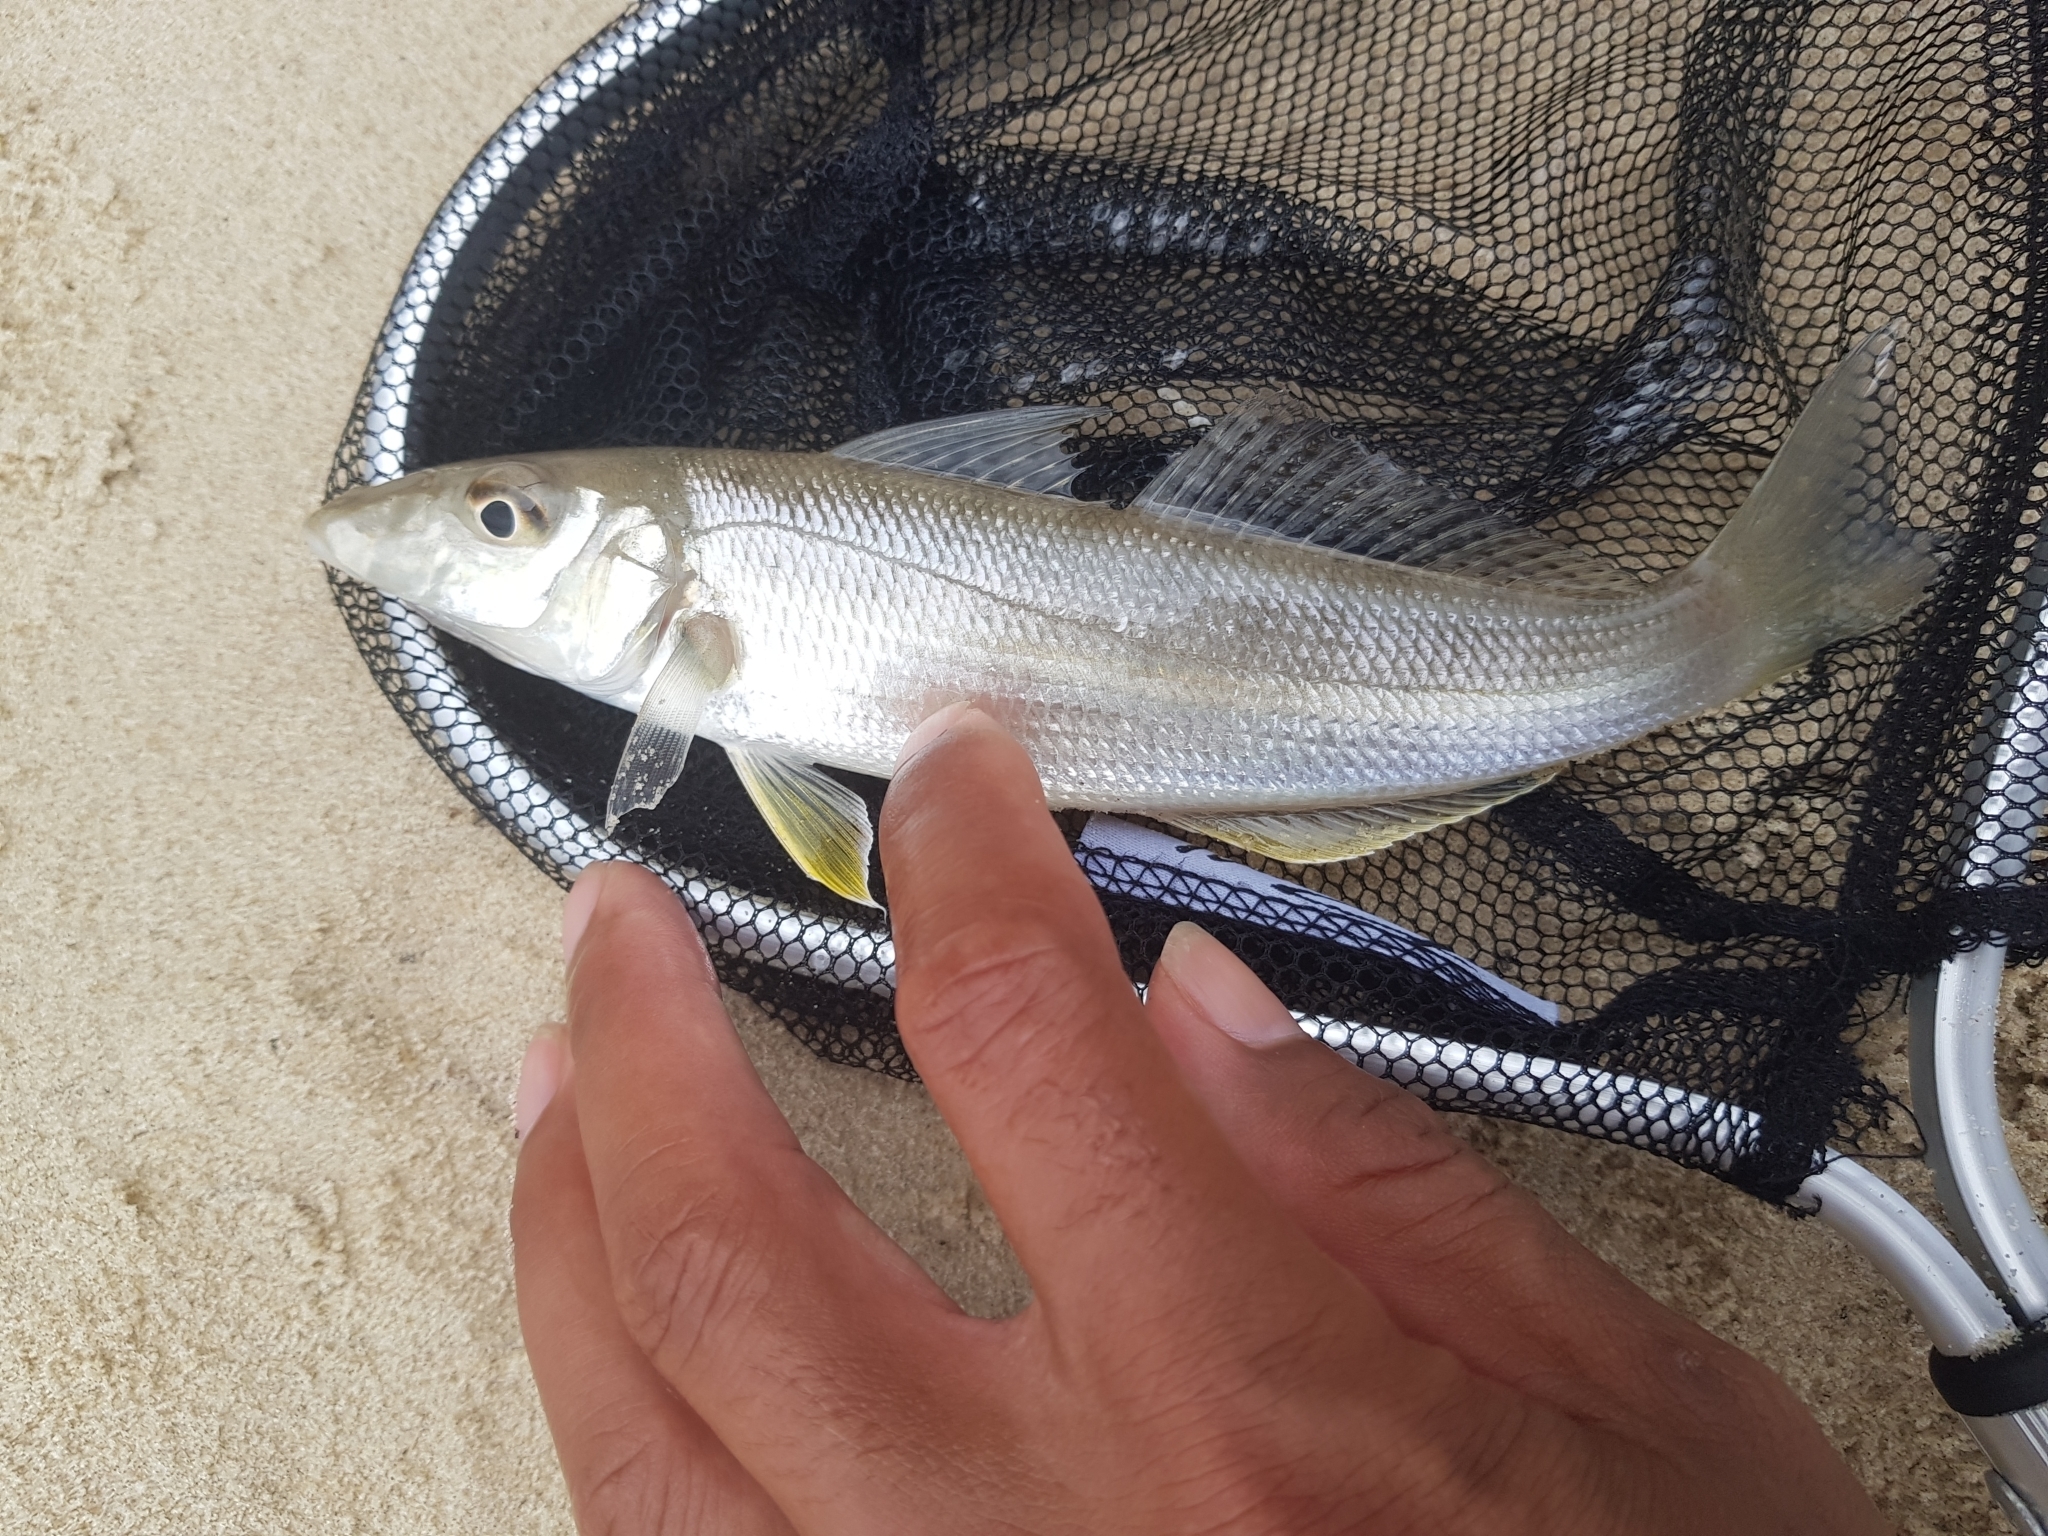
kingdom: Animalia
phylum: Chordata
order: Perciformes
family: Sillaginidae
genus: Sillago
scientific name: Sillago ciliata
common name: Sand sillago
